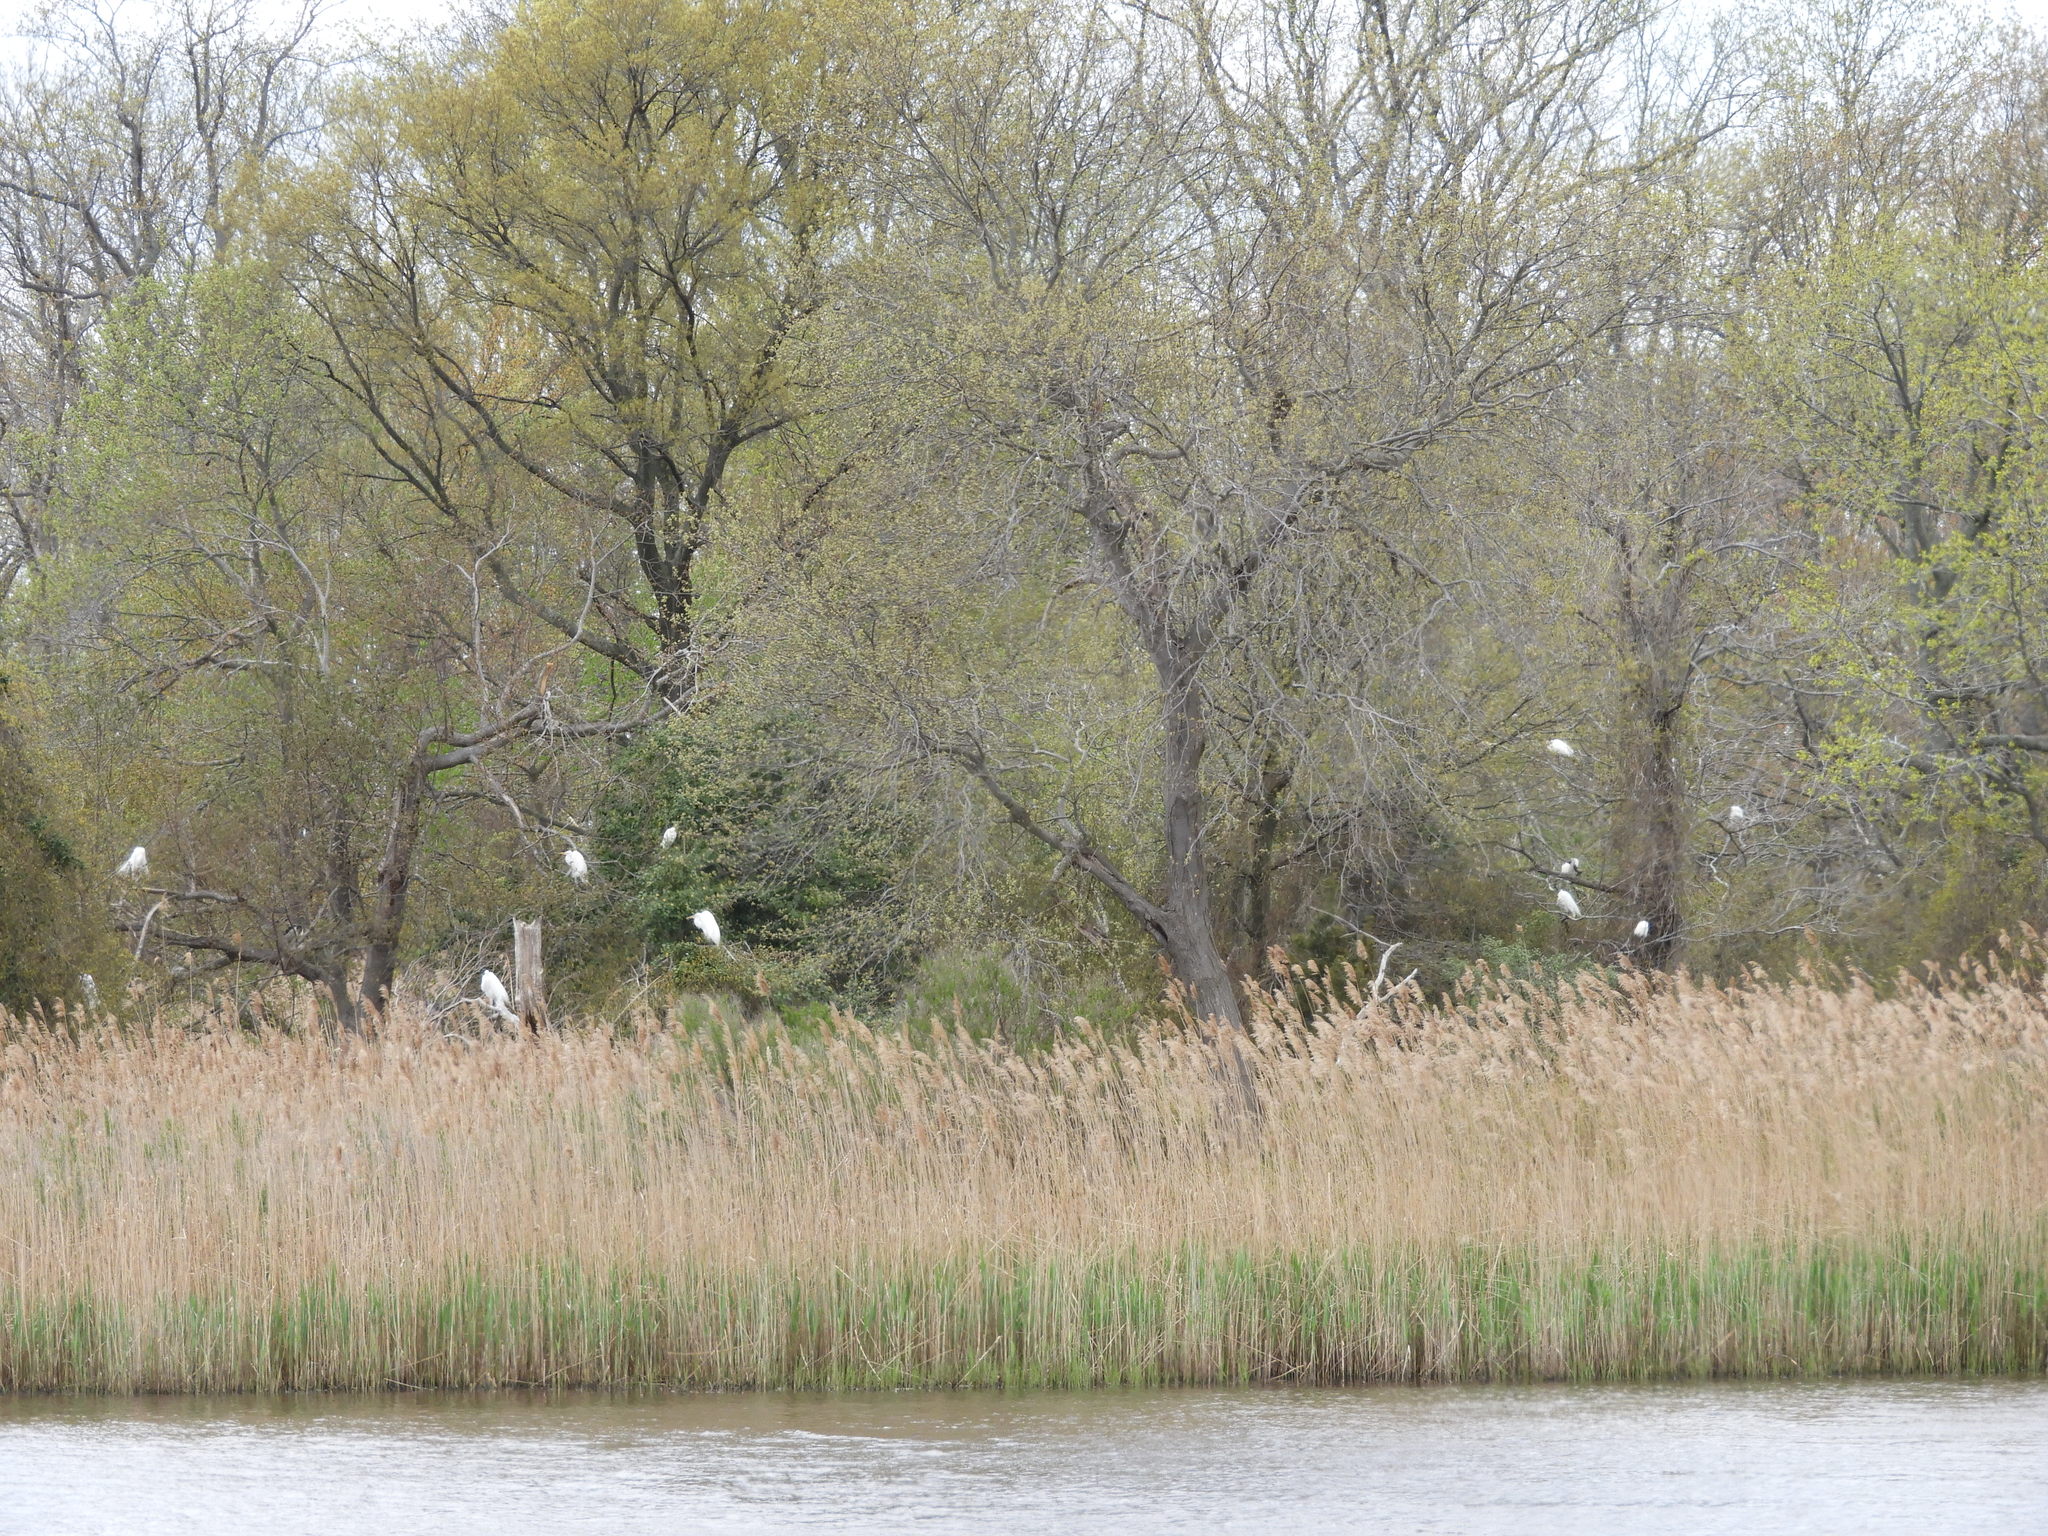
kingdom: Animalia
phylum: Chordata
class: Aves
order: Pelecaniformes
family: Ardeidae
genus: Egretta
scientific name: Egretta thula
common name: Snowy egret
